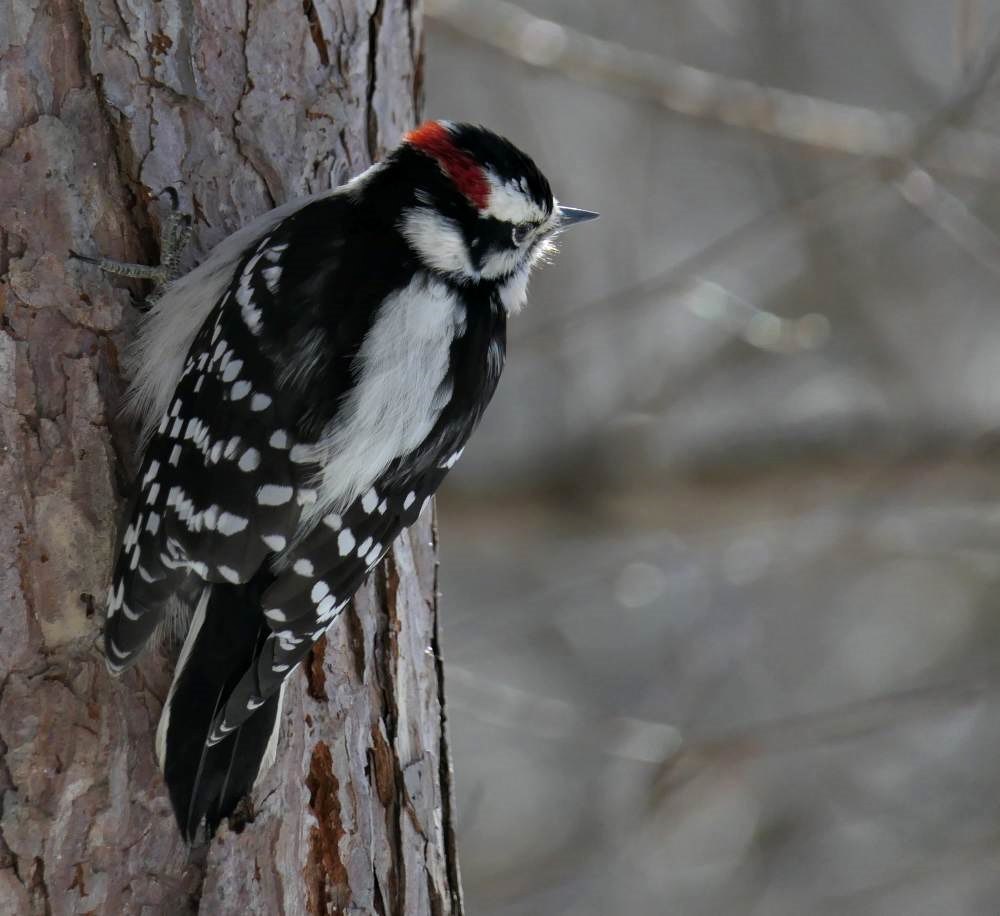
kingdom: Animalia
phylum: Chordata
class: Aves
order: Piciformes
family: Picidae
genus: Dryobates
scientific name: Dryobates pubescens
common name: Downy woodpecker
